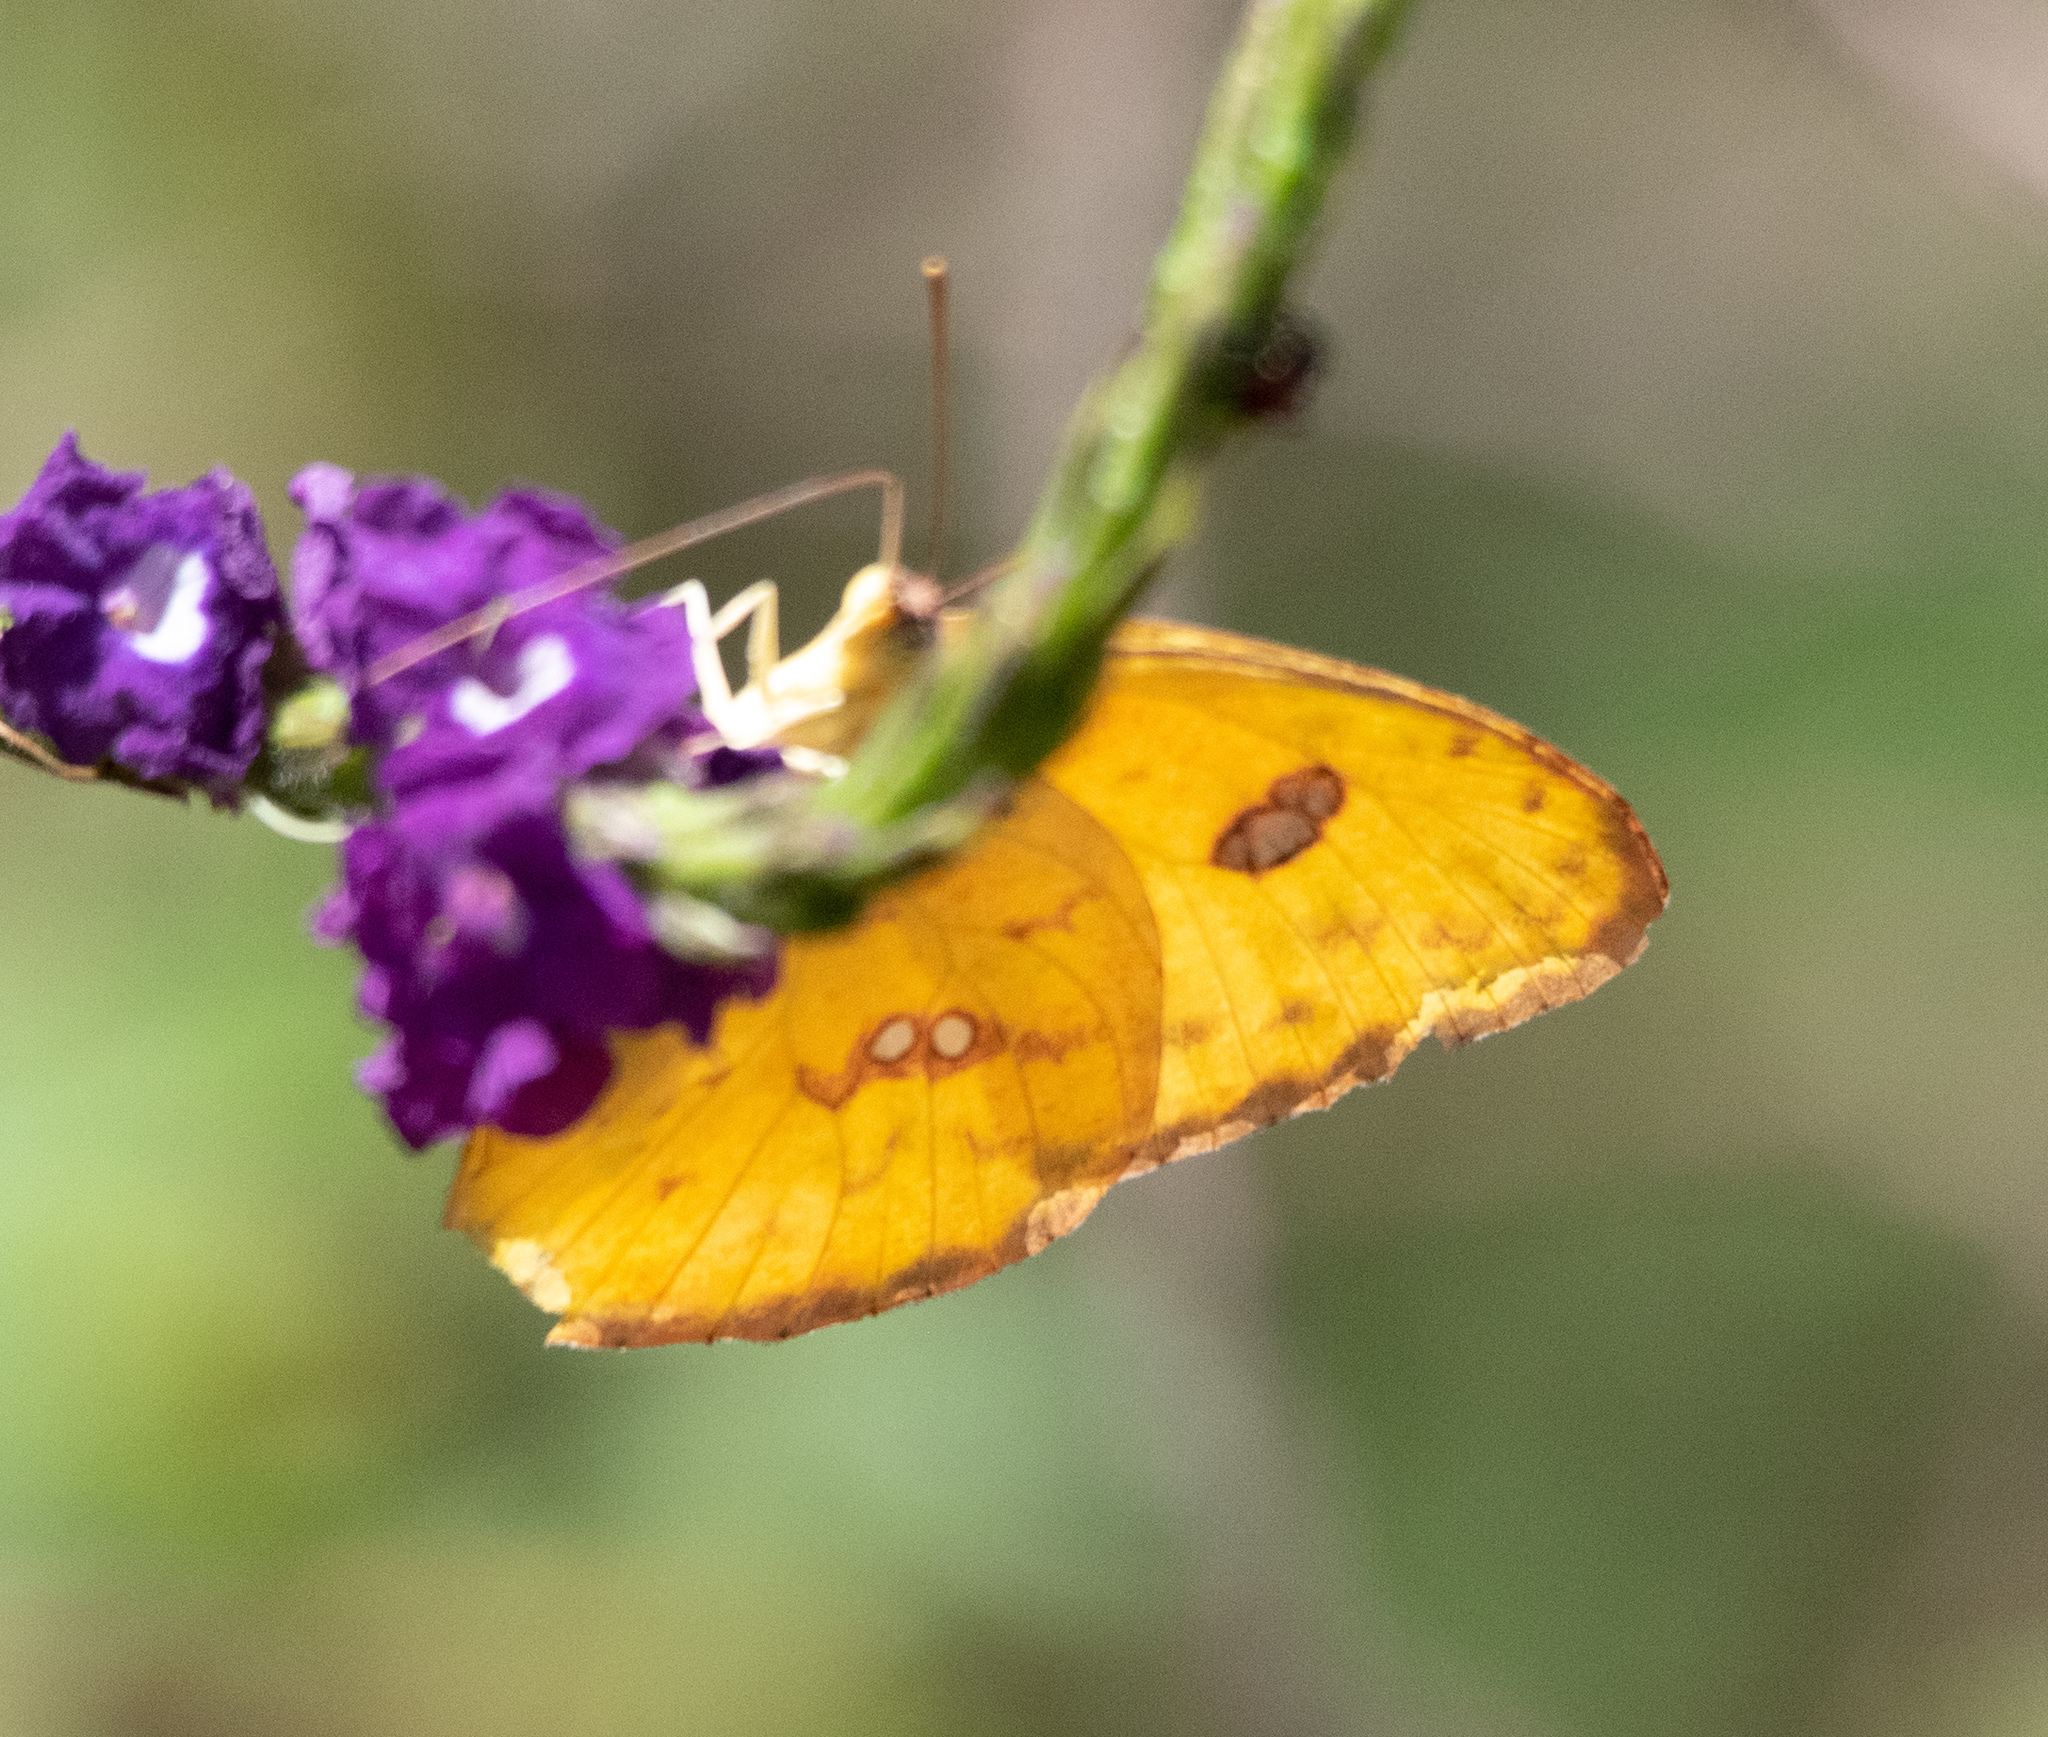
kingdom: Animalia
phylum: Arthropoda
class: Insecta
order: Lepidoptera
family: Pieridae
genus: Phoebis
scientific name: Phoebis sennae
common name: Cloudless sulphur
